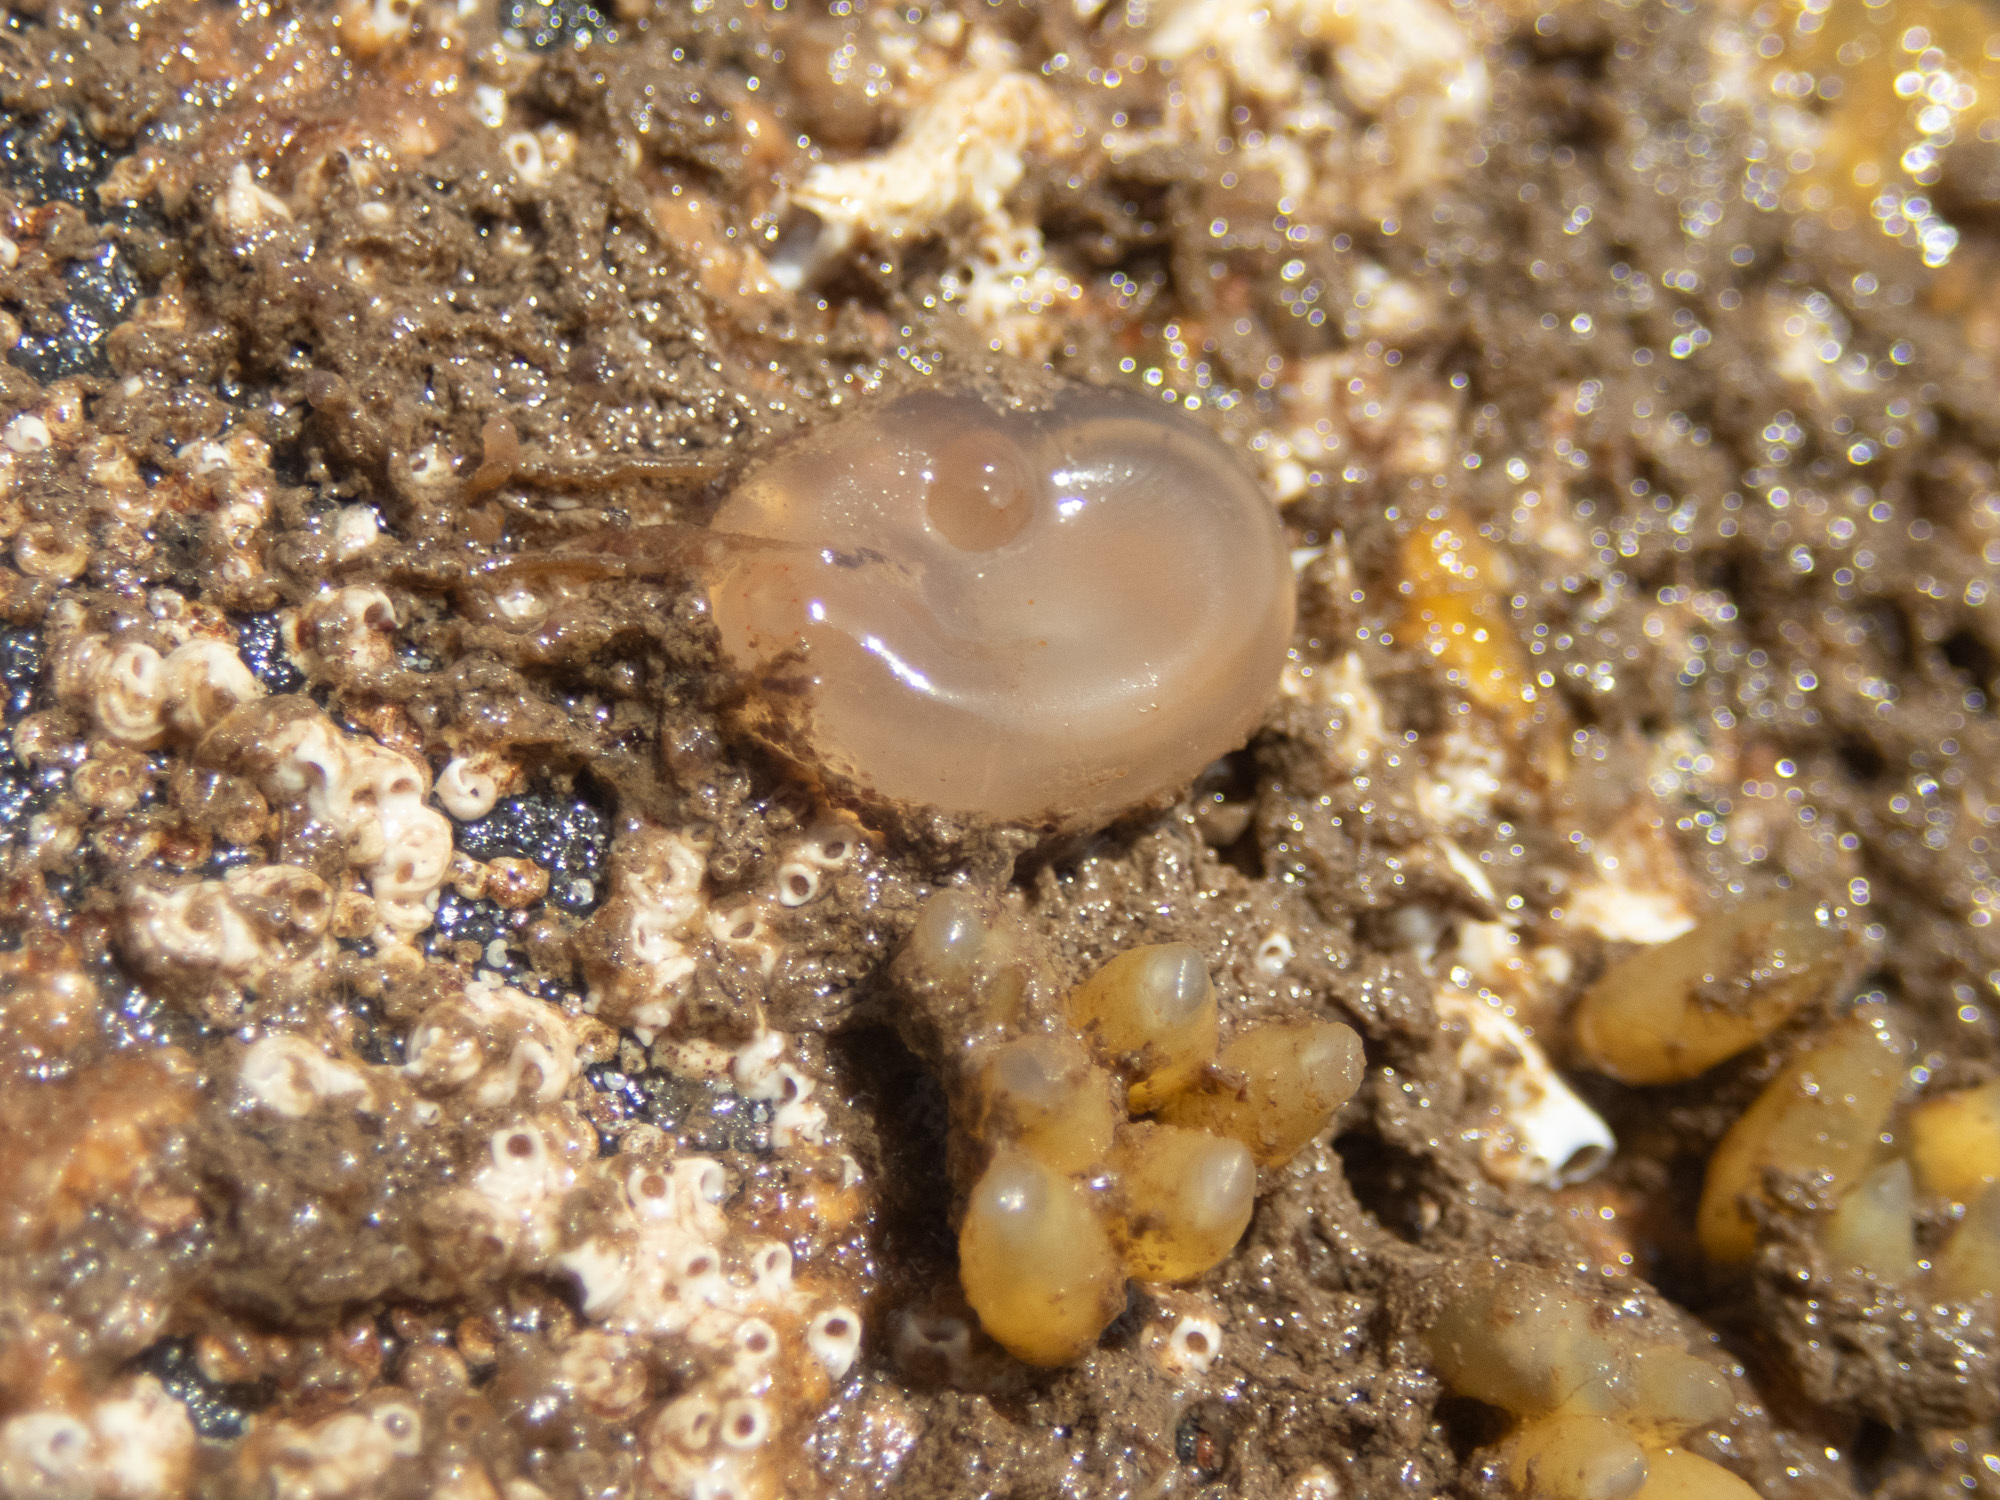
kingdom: Animalia
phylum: Chordata
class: Ascidiacea
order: Phlebobranchia
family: Corellidae
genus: Corella
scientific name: Corella eumyota
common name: Orange-tipped sea squirt
